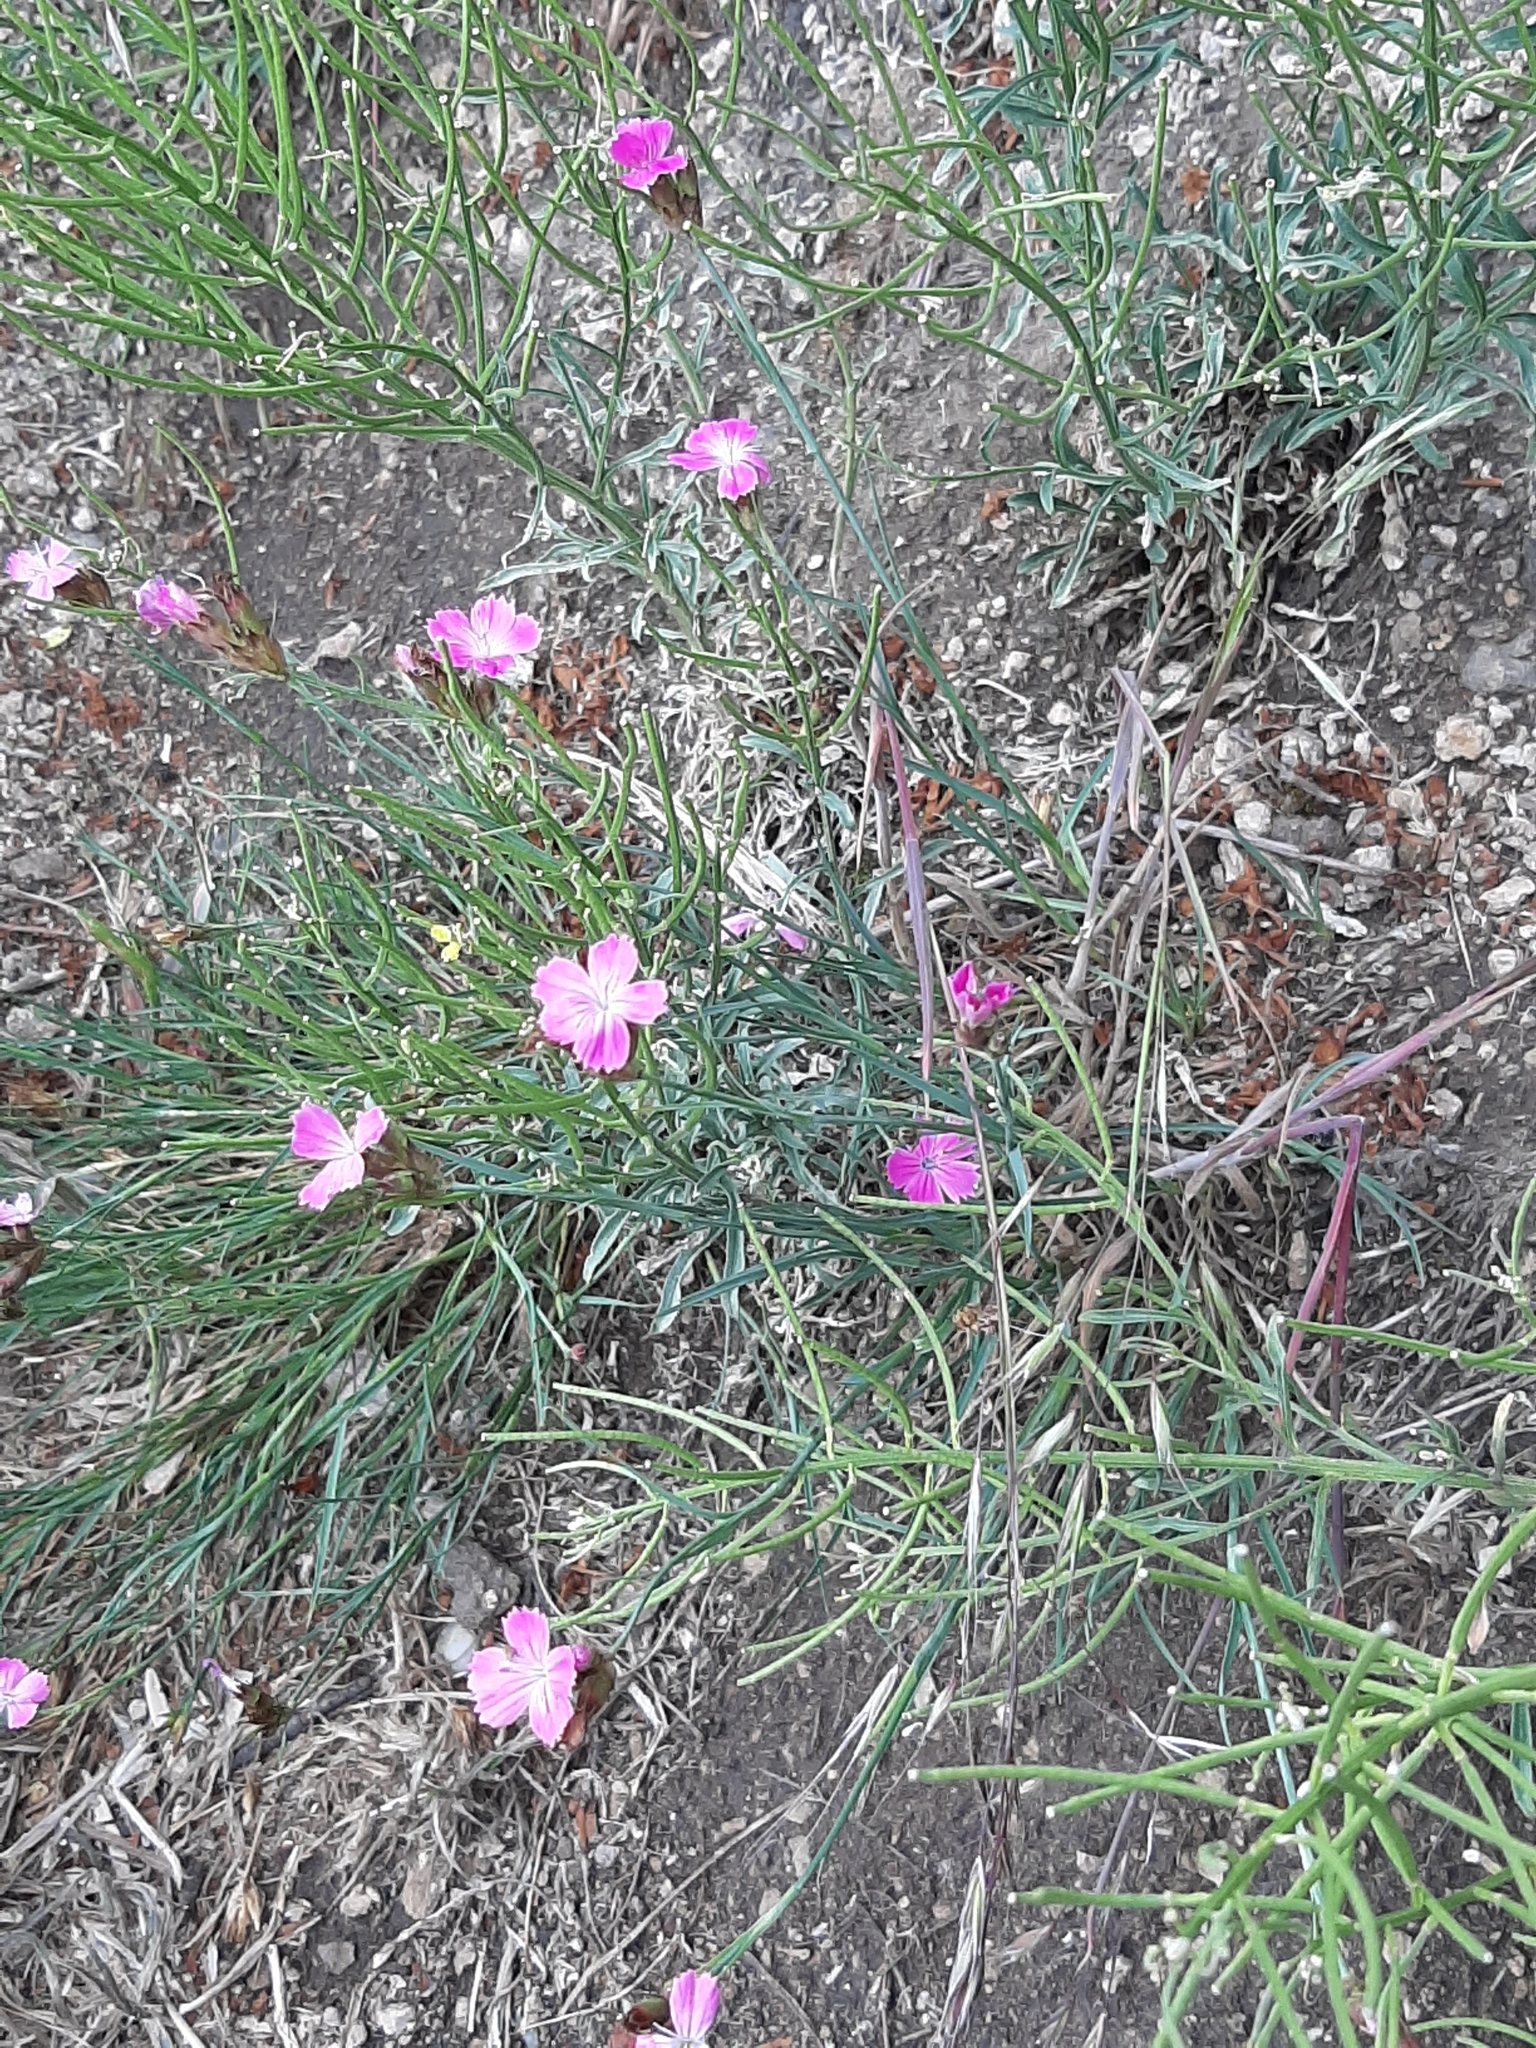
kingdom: Plantae
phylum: Tracheophyta
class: Magnoliopsida
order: Caryophyllales
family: Caryophyllaceae
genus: Dianthus
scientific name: Dianthus carthusianorum
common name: Carthusian pink
